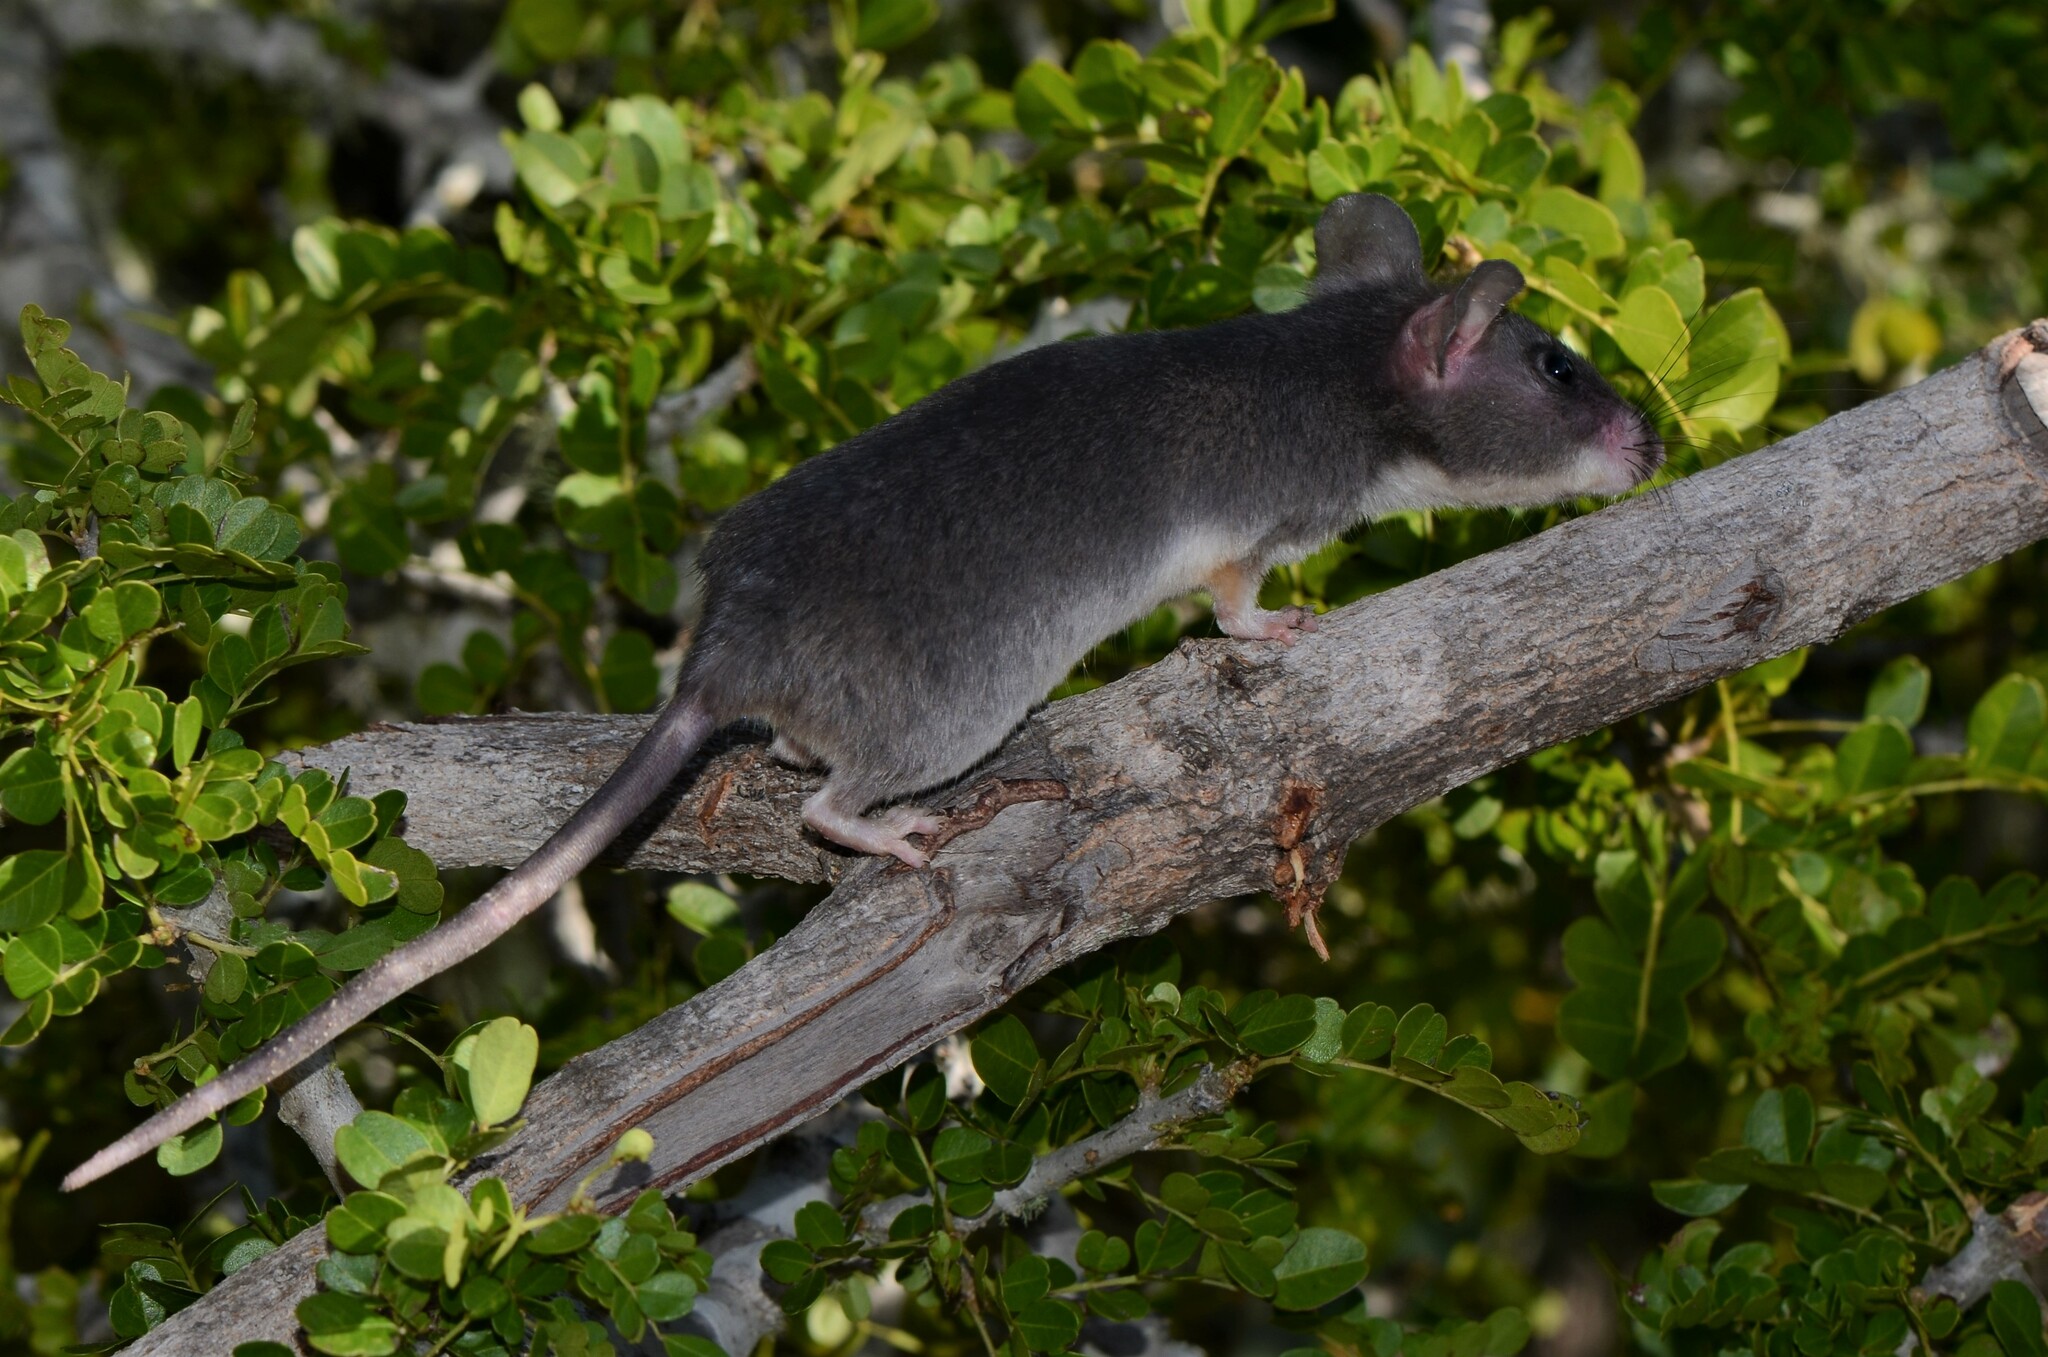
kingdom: Animalia
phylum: Chordata
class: Mammalia
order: Rodentia
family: Nesomyidae
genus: Beamys
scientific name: Beamys hindei
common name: Lesser hamster-rat, long-tailed pouched rat
